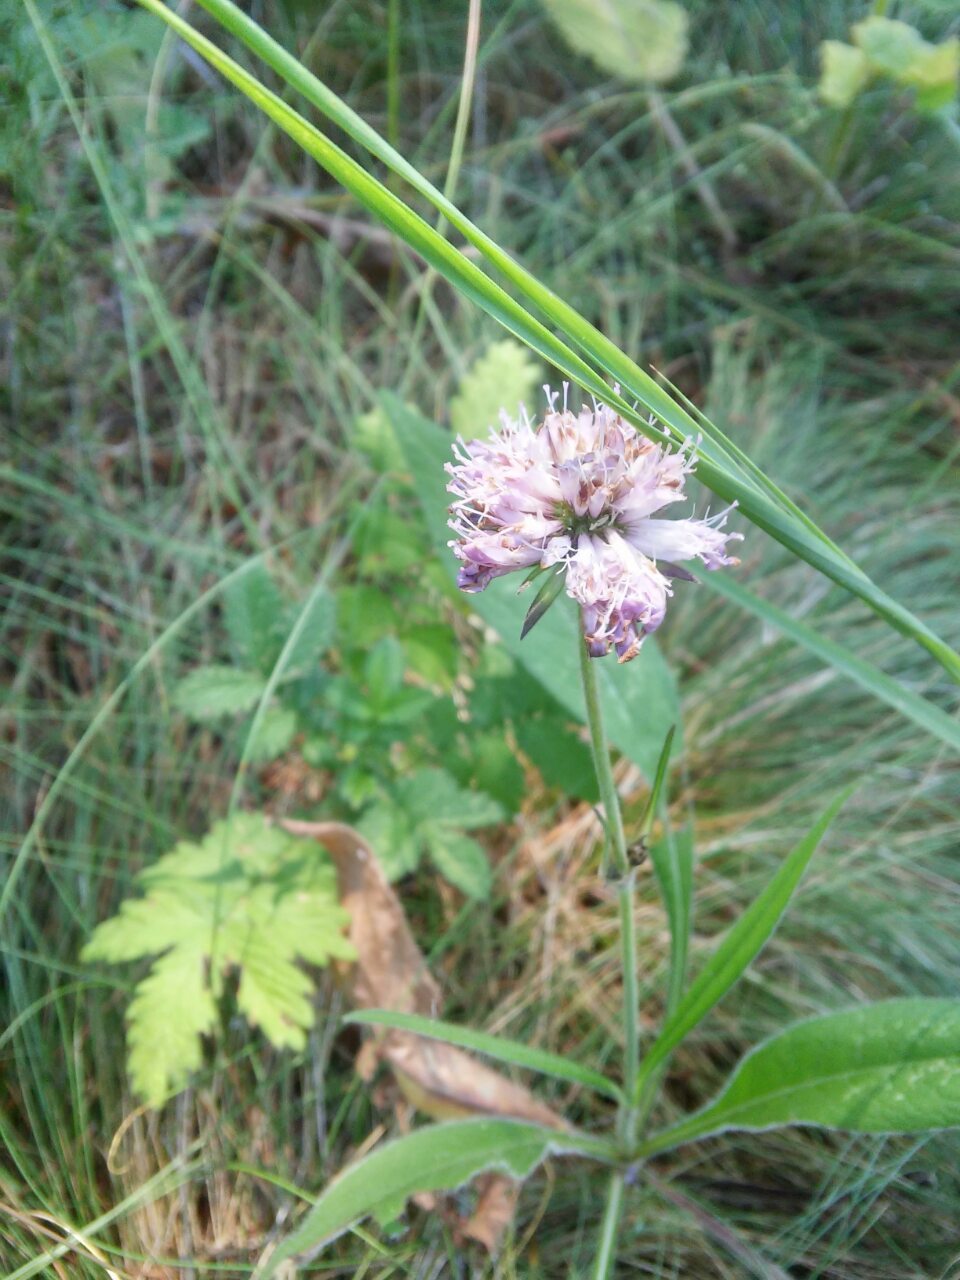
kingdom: Plantae
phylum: Tracheophyta
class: Magnoliopsida
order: Dipsacales
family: Caprifoliaceae
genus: Knautia
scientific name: Knautia arvensis
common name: Field scabiosa
